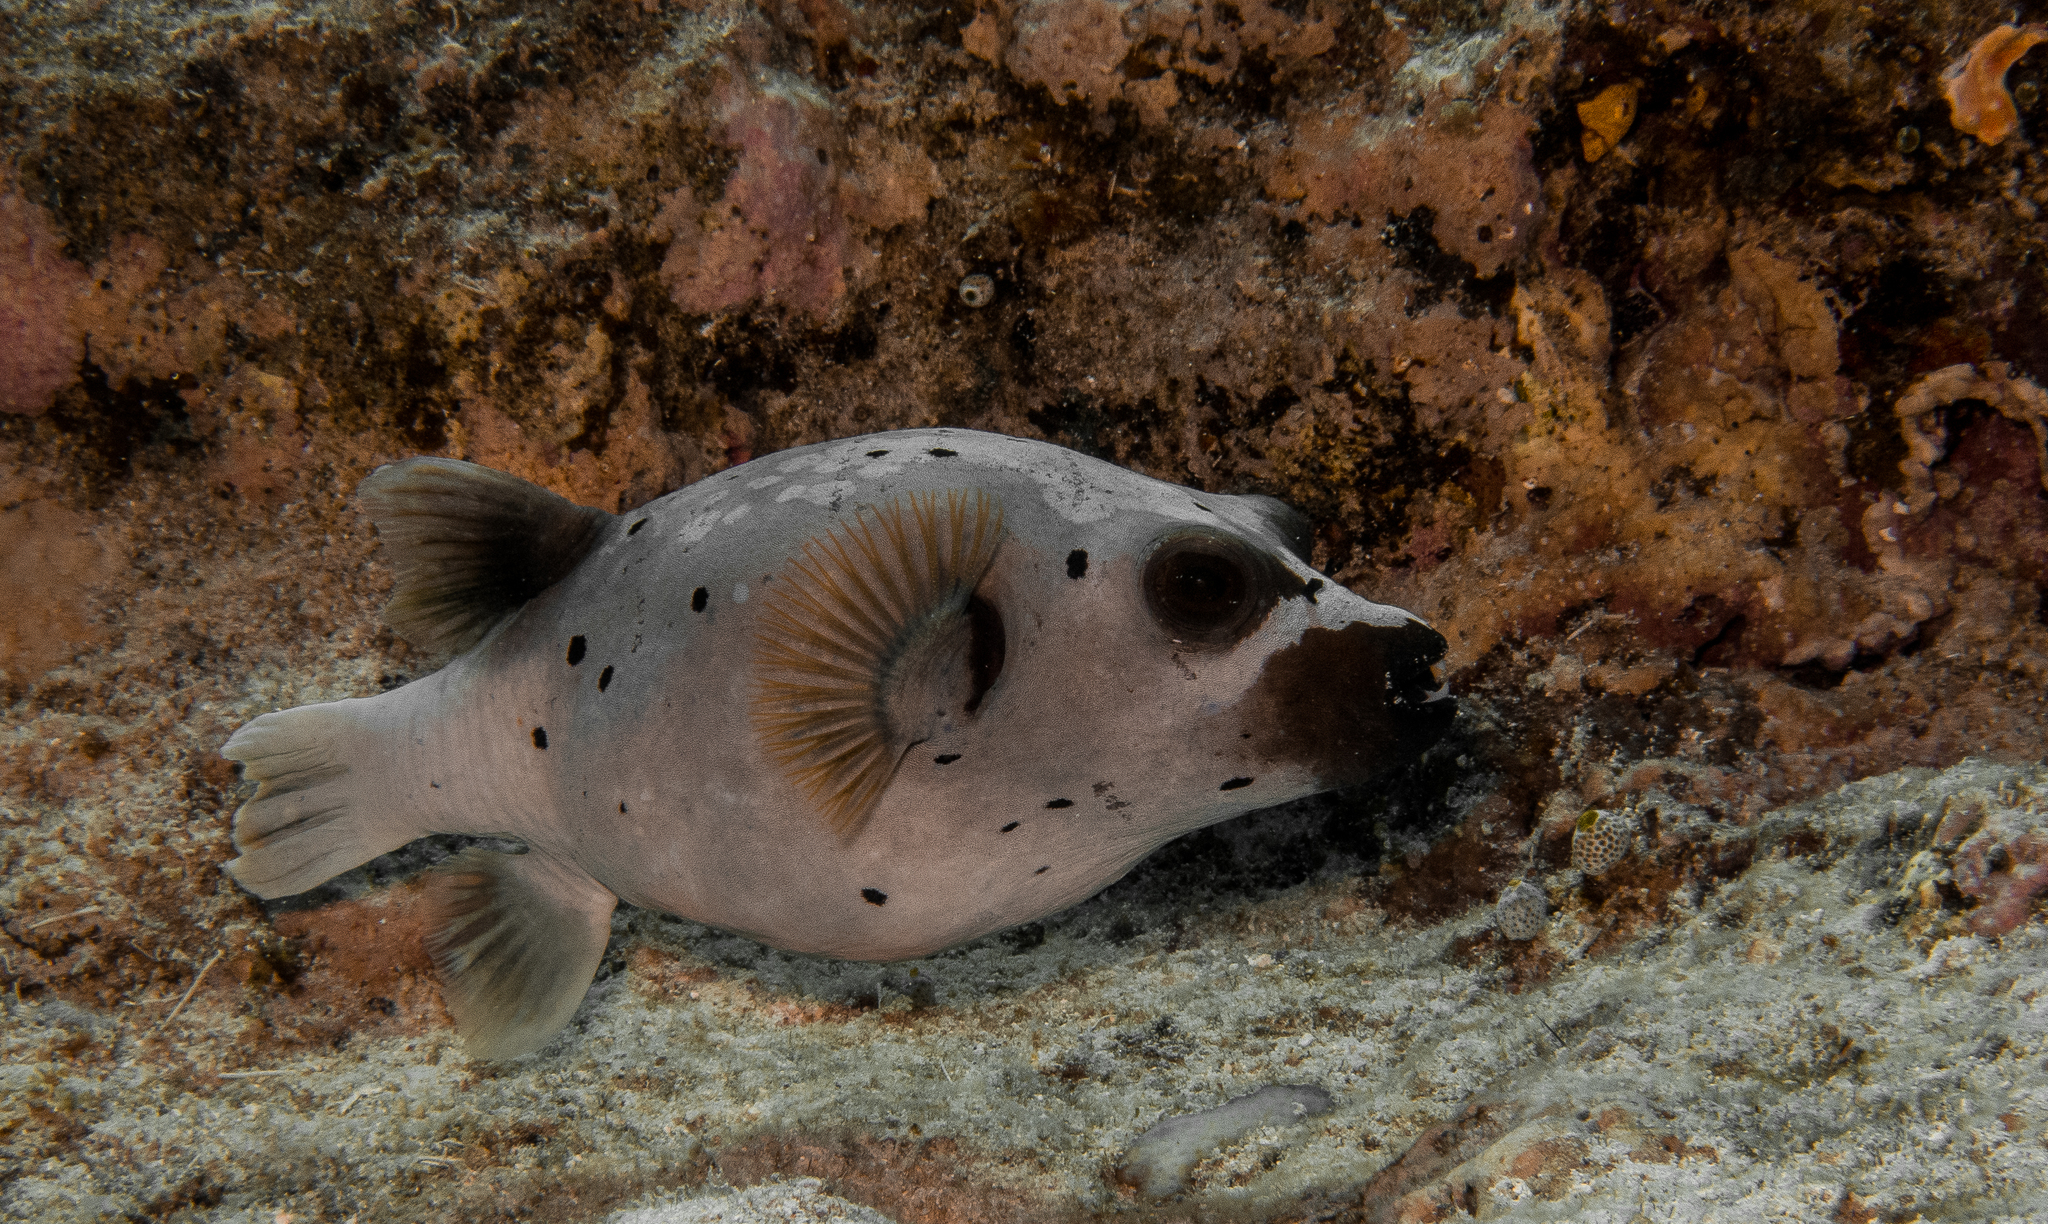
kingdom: Animalia
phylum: Chordata
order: Tetraodontiformes
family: Tetraodontidae
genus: Arothron
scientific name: Arothron nigropunctatus
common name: Black spotted blow fish
